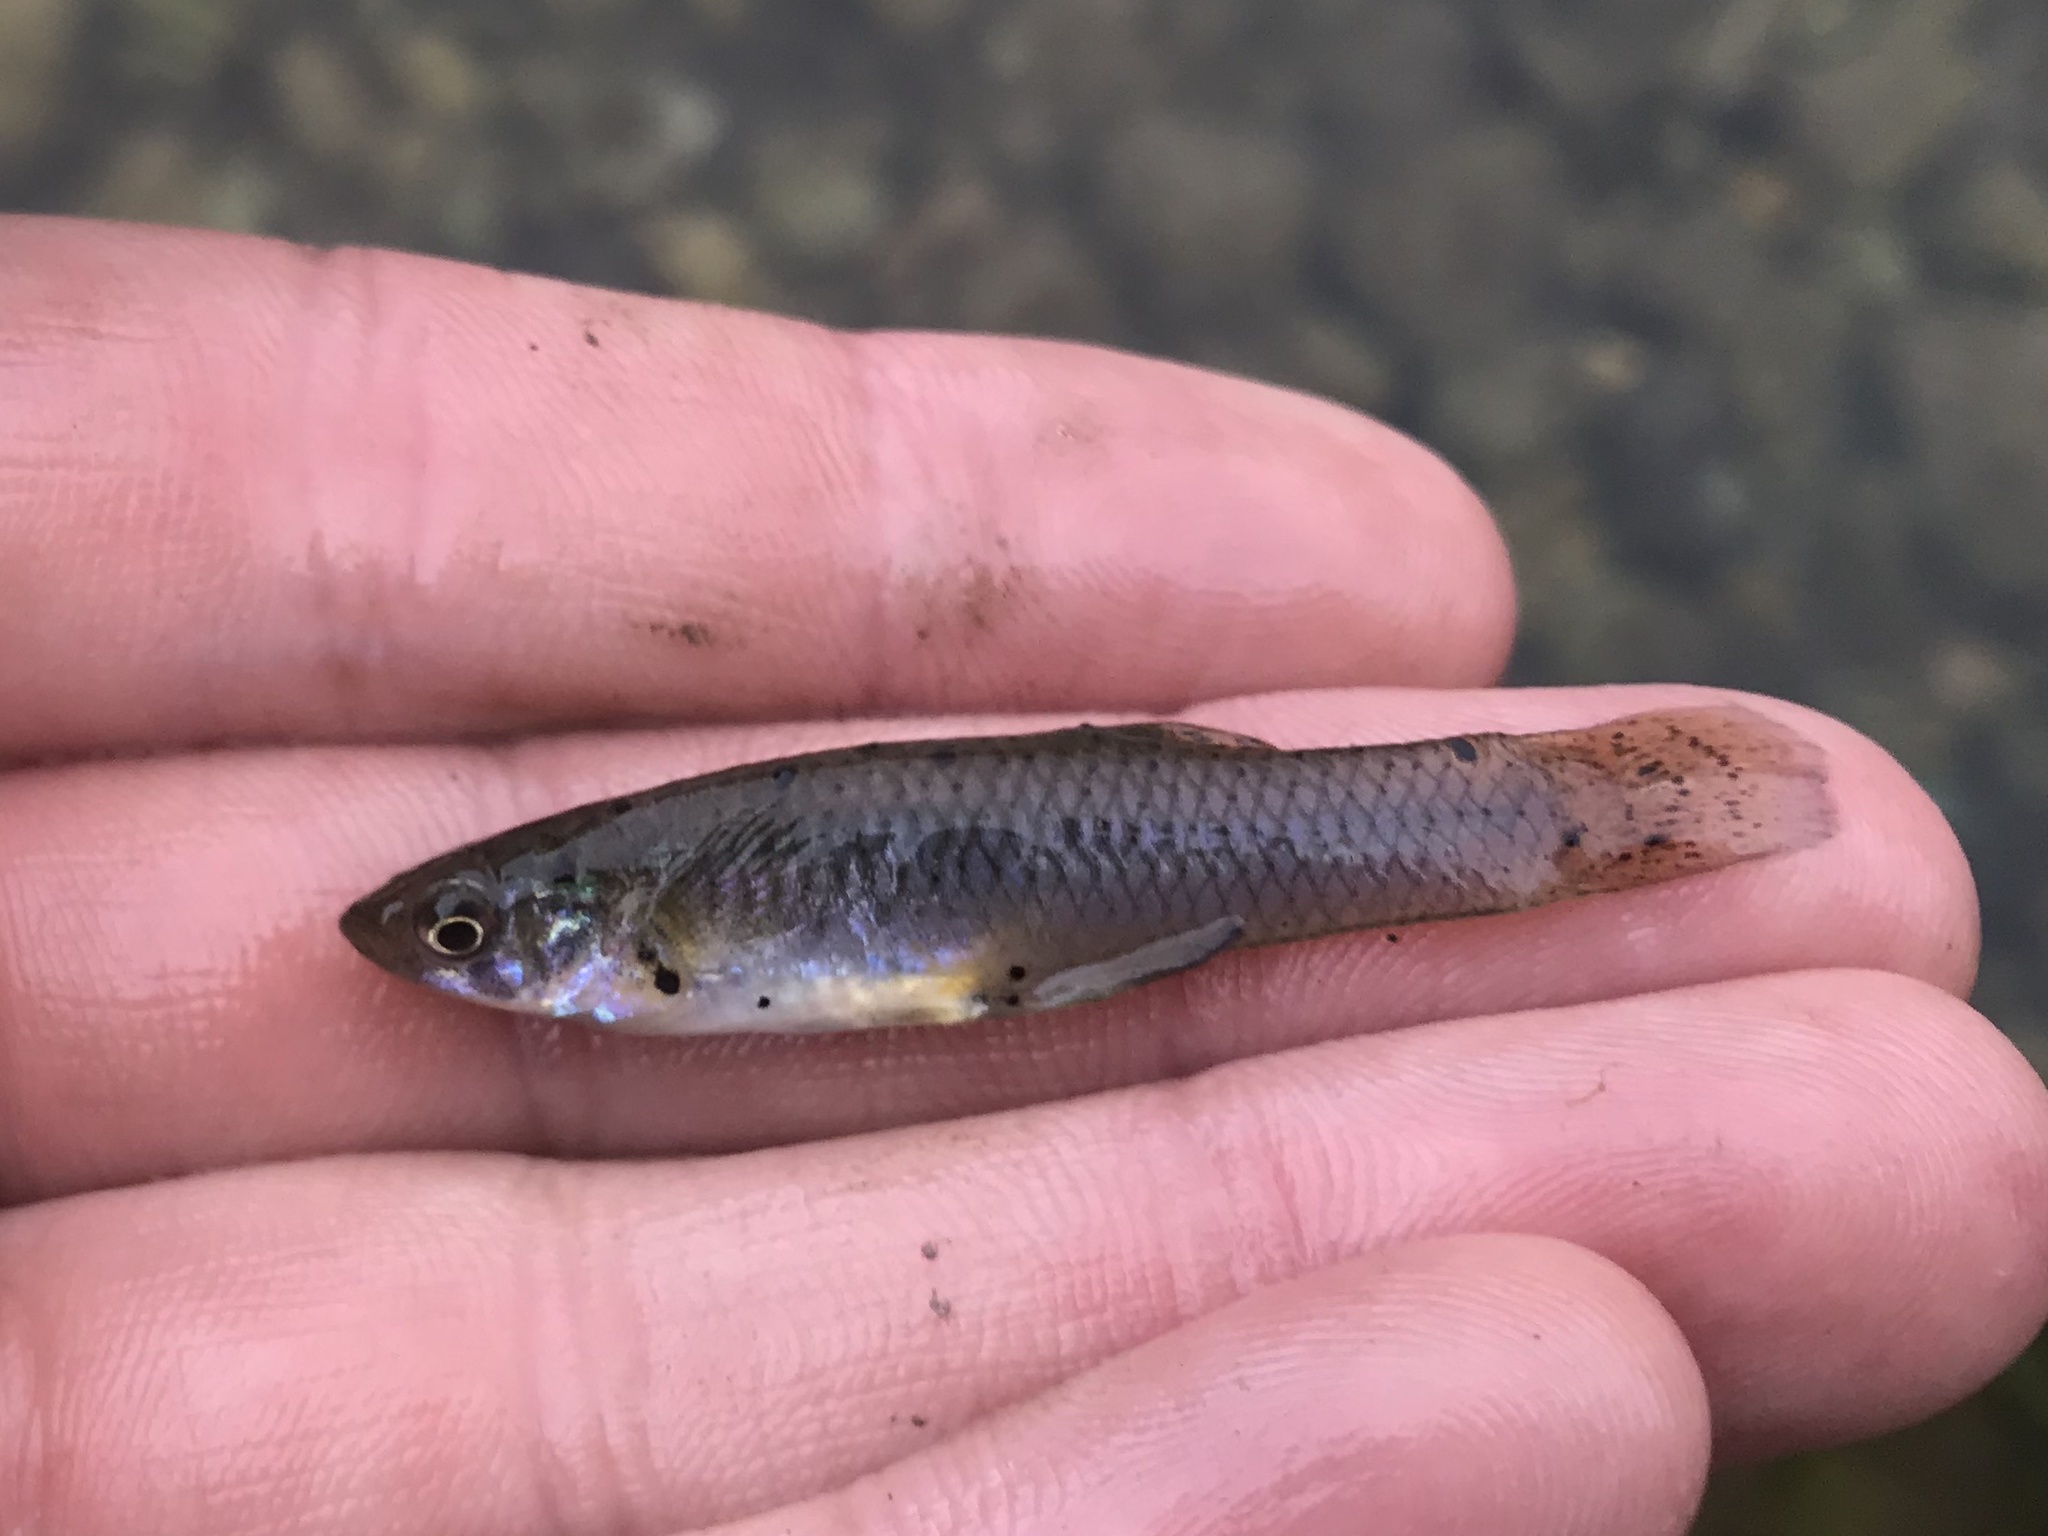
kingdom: Animalia
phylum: Chordata
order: Cyprinodontiformes
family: Poeciliidae
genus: Gambusia
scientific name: Gambusia affinis
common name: Mosquitofish
